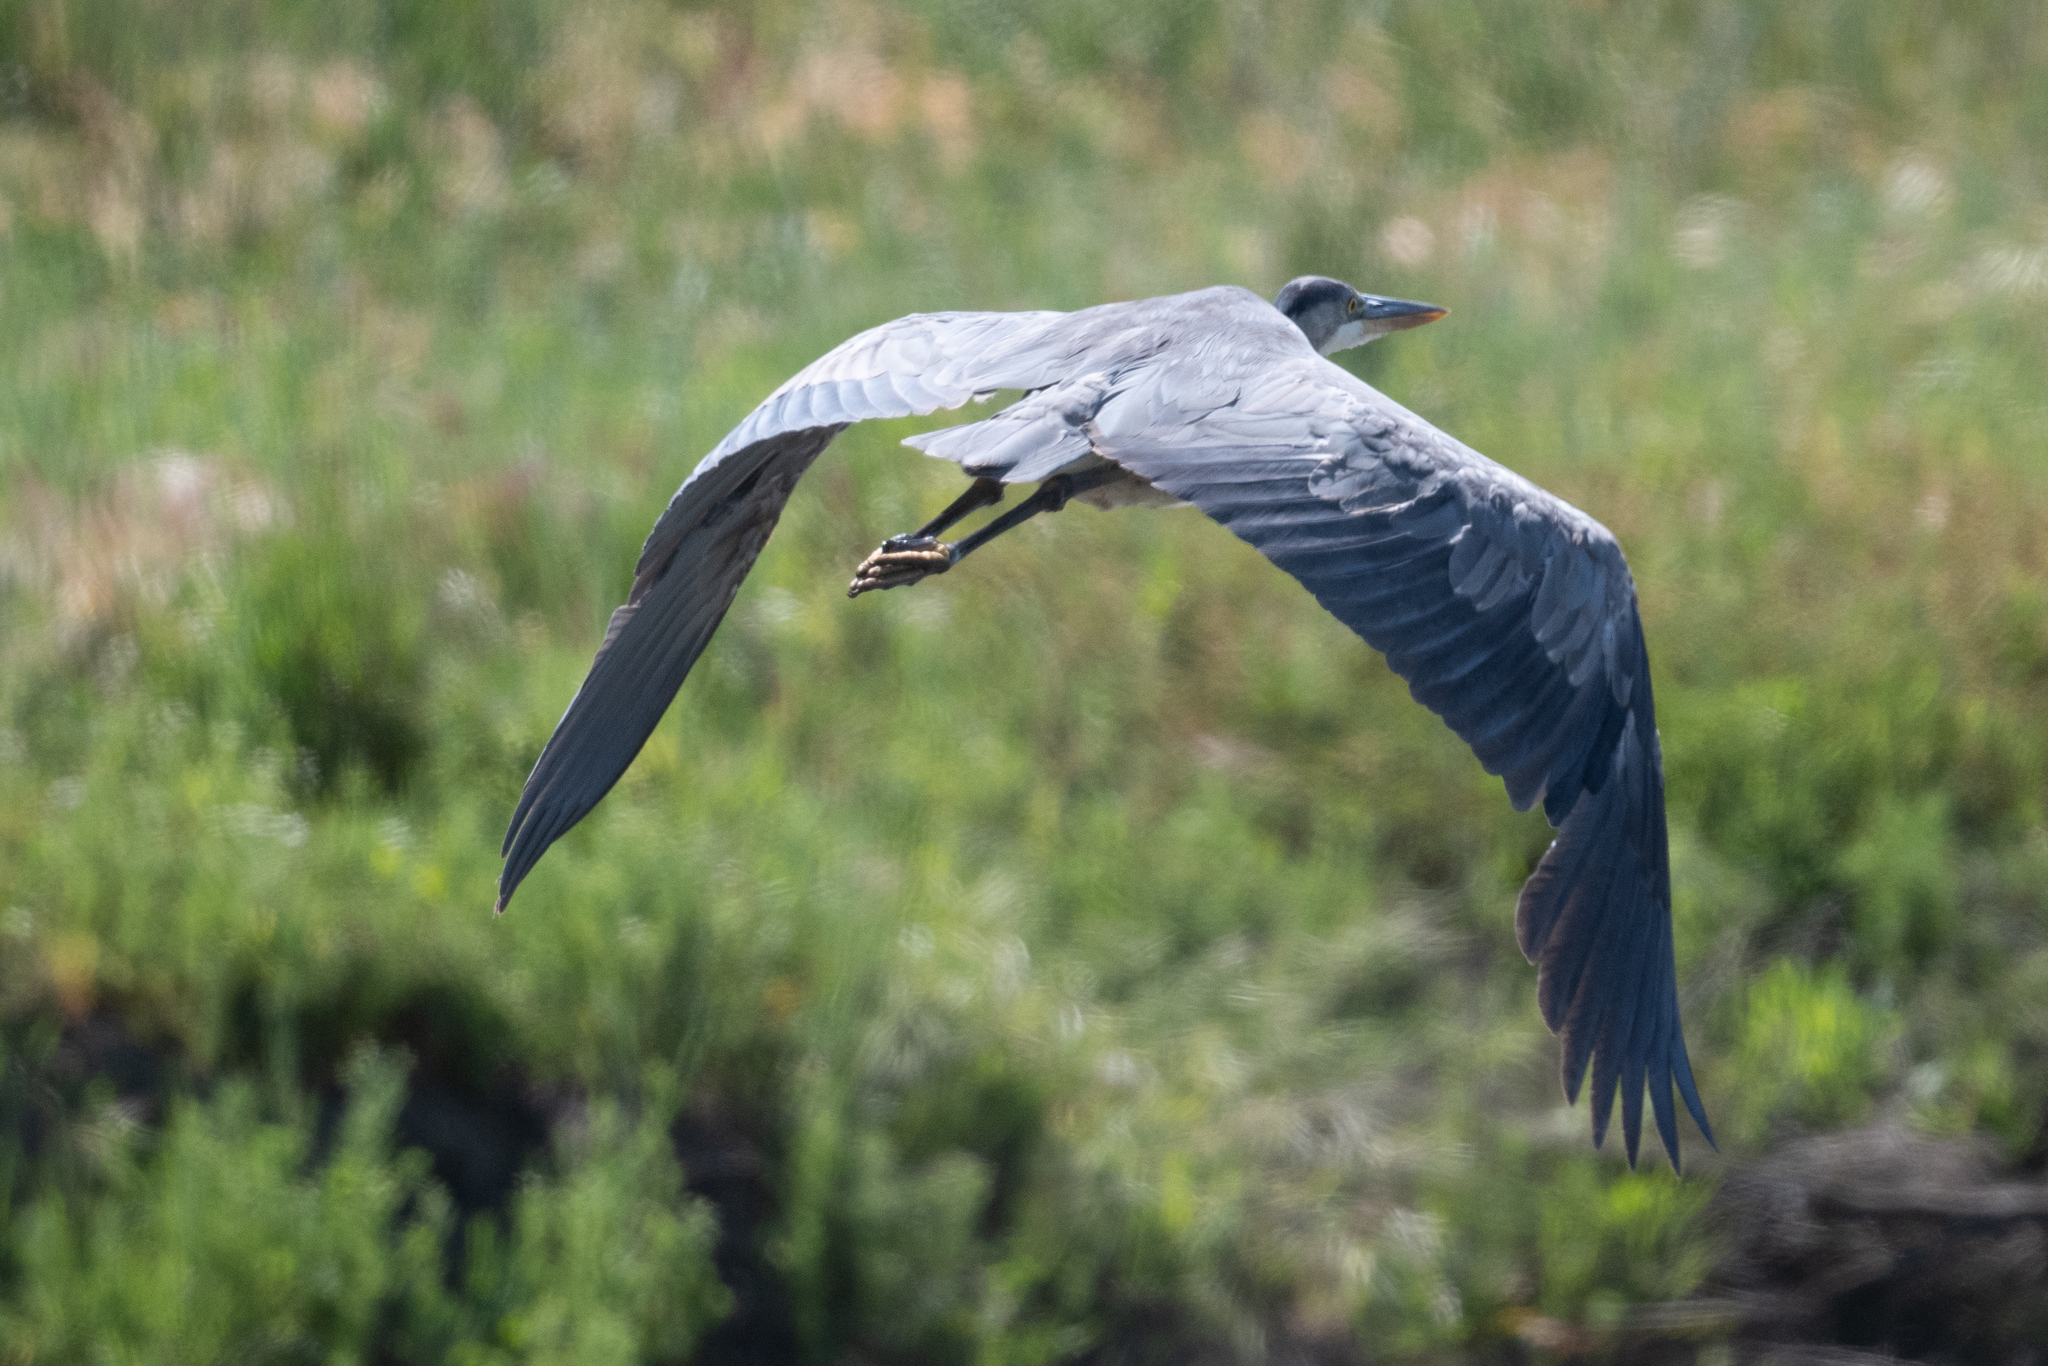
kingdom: Animalia
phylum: Chordata
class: Aves
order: Pelecaniformes
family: Ardeidae
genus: Ardea
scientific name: Ardea herodias
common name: Great blue heron
